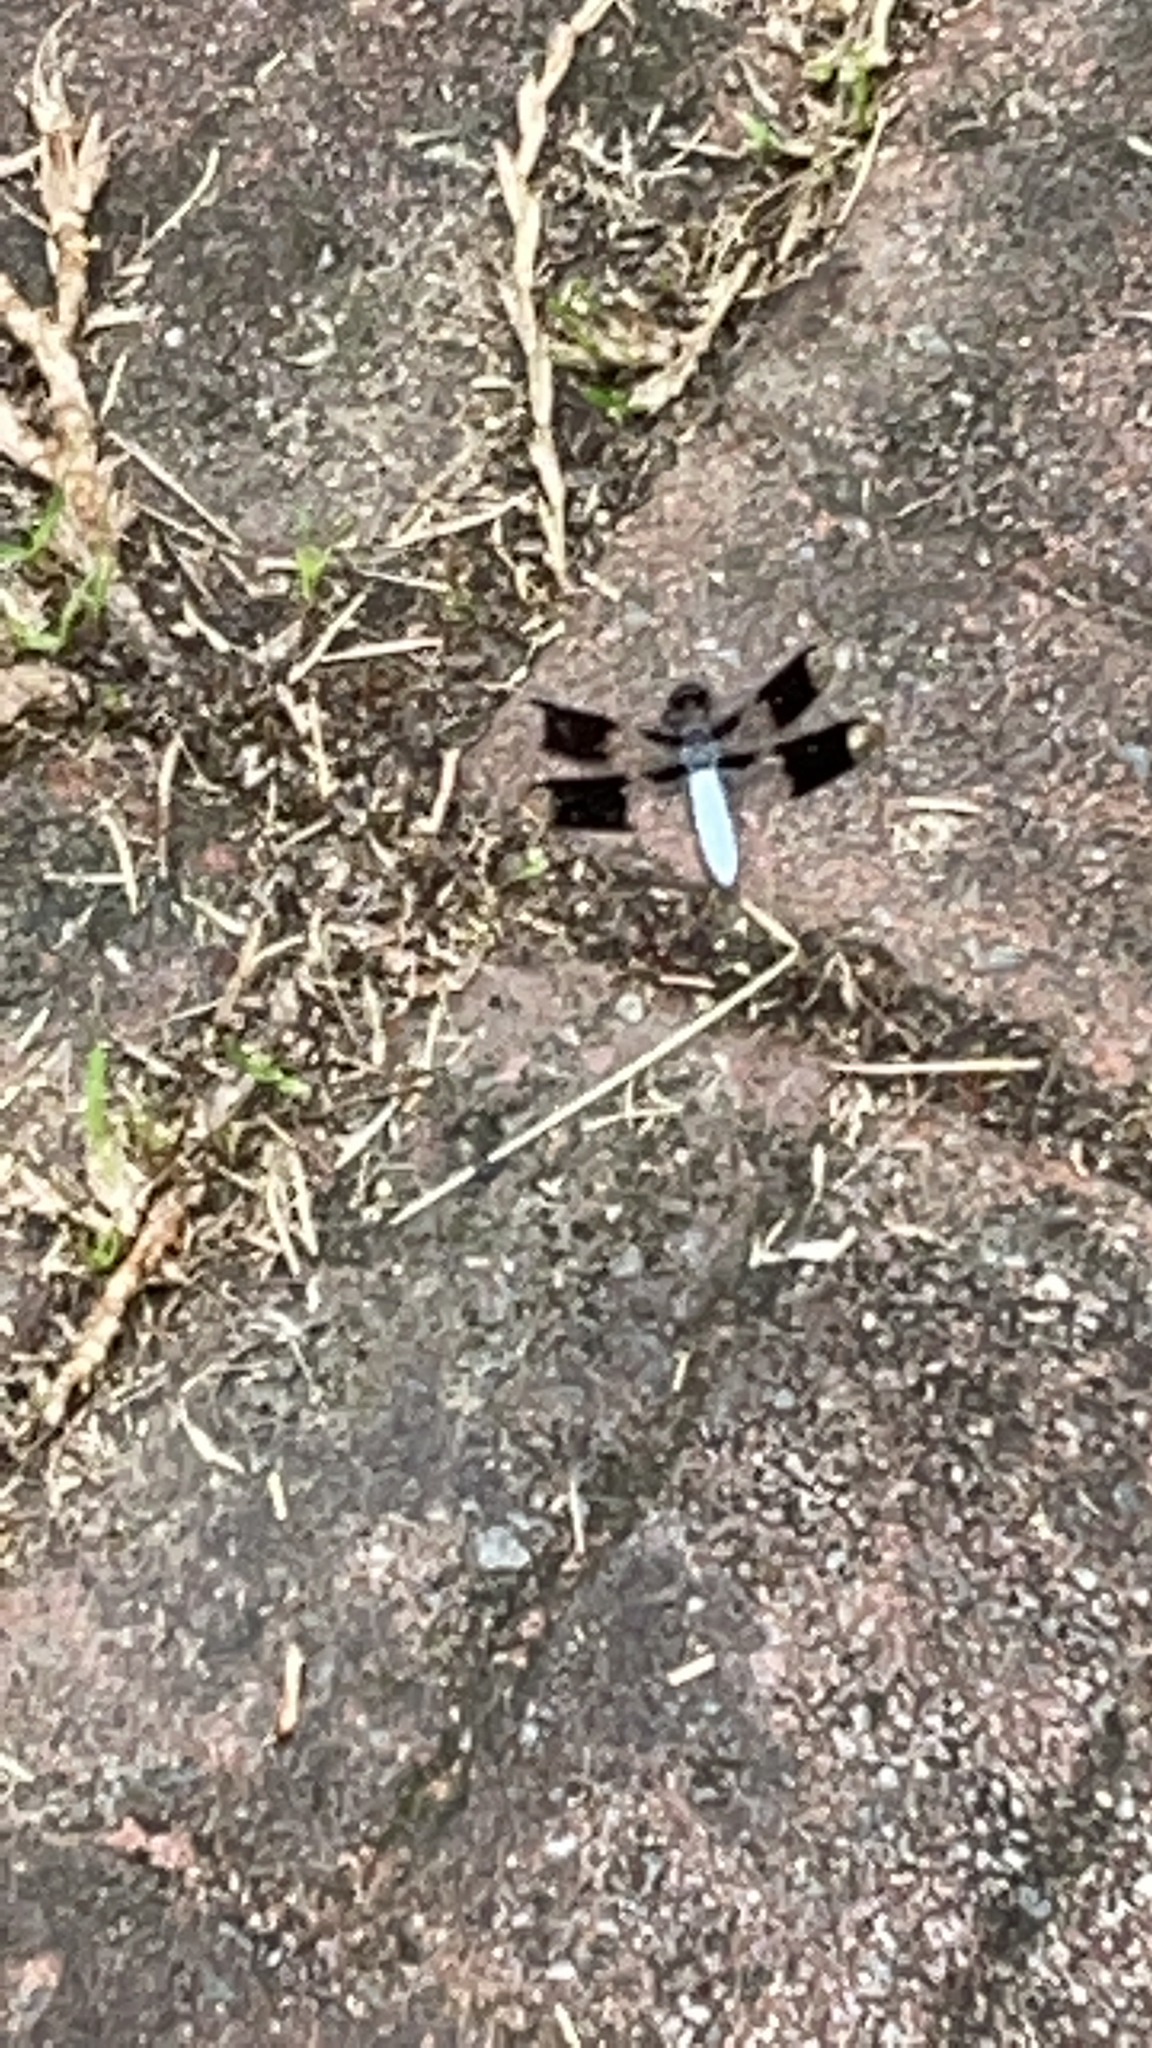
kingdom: Animalia
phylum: Arthropoda
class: Insecta
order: Odonata
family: Libellulidae
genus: Plathemis
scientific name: Plathemis lydia
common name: Common whitetail
